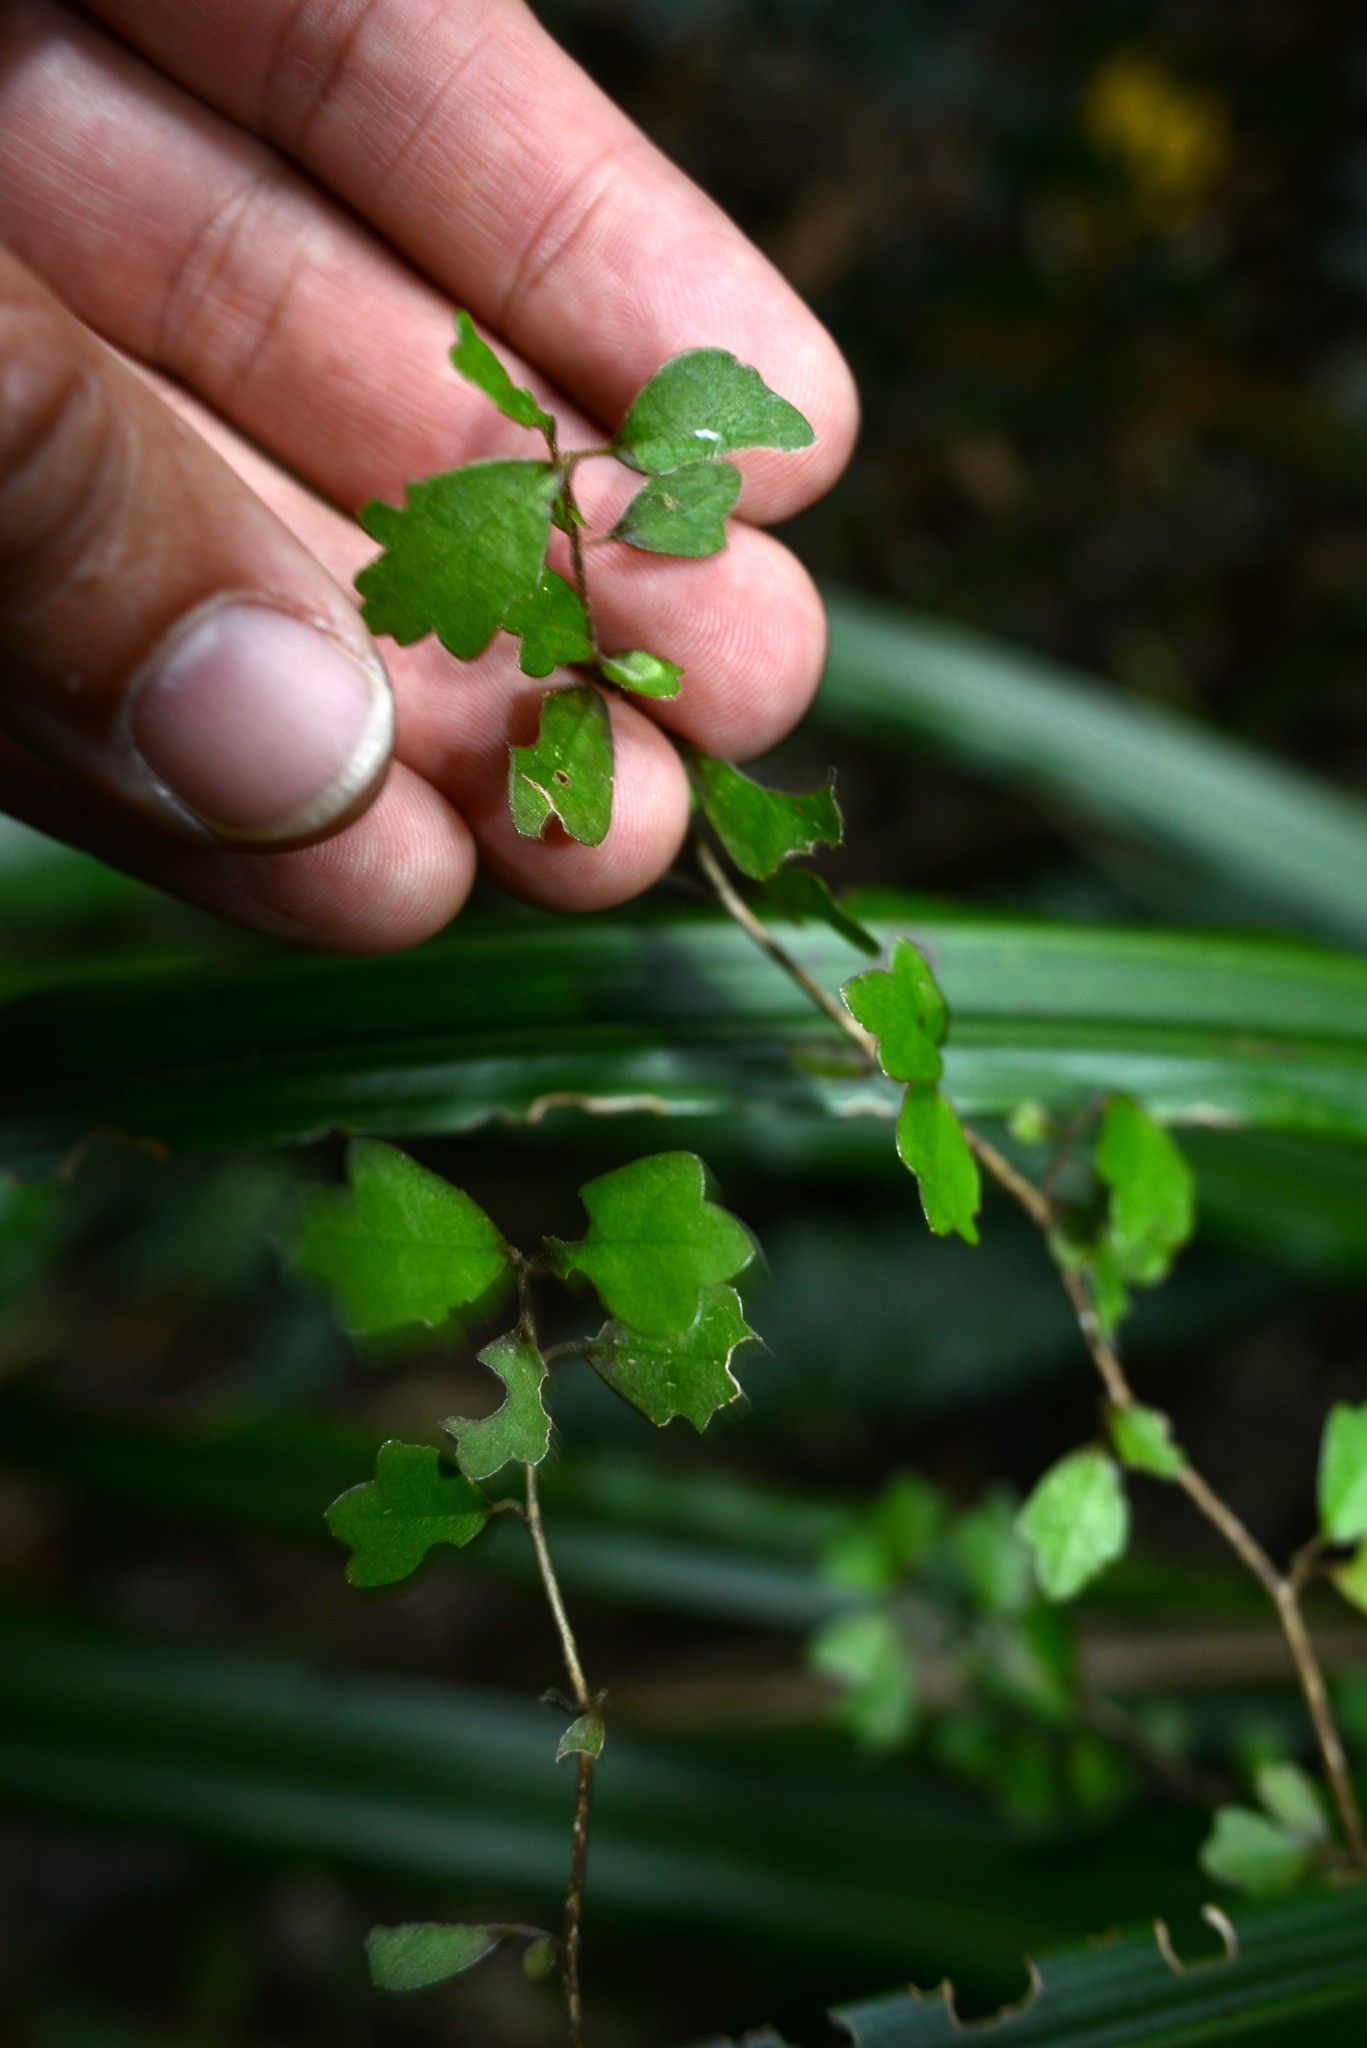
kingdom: Plantae
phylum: Tracheophyta
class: Magnoliopsida
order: Apiales
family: Pennantiaceae
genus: Pennantia
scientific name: Pennantia corymbosa
